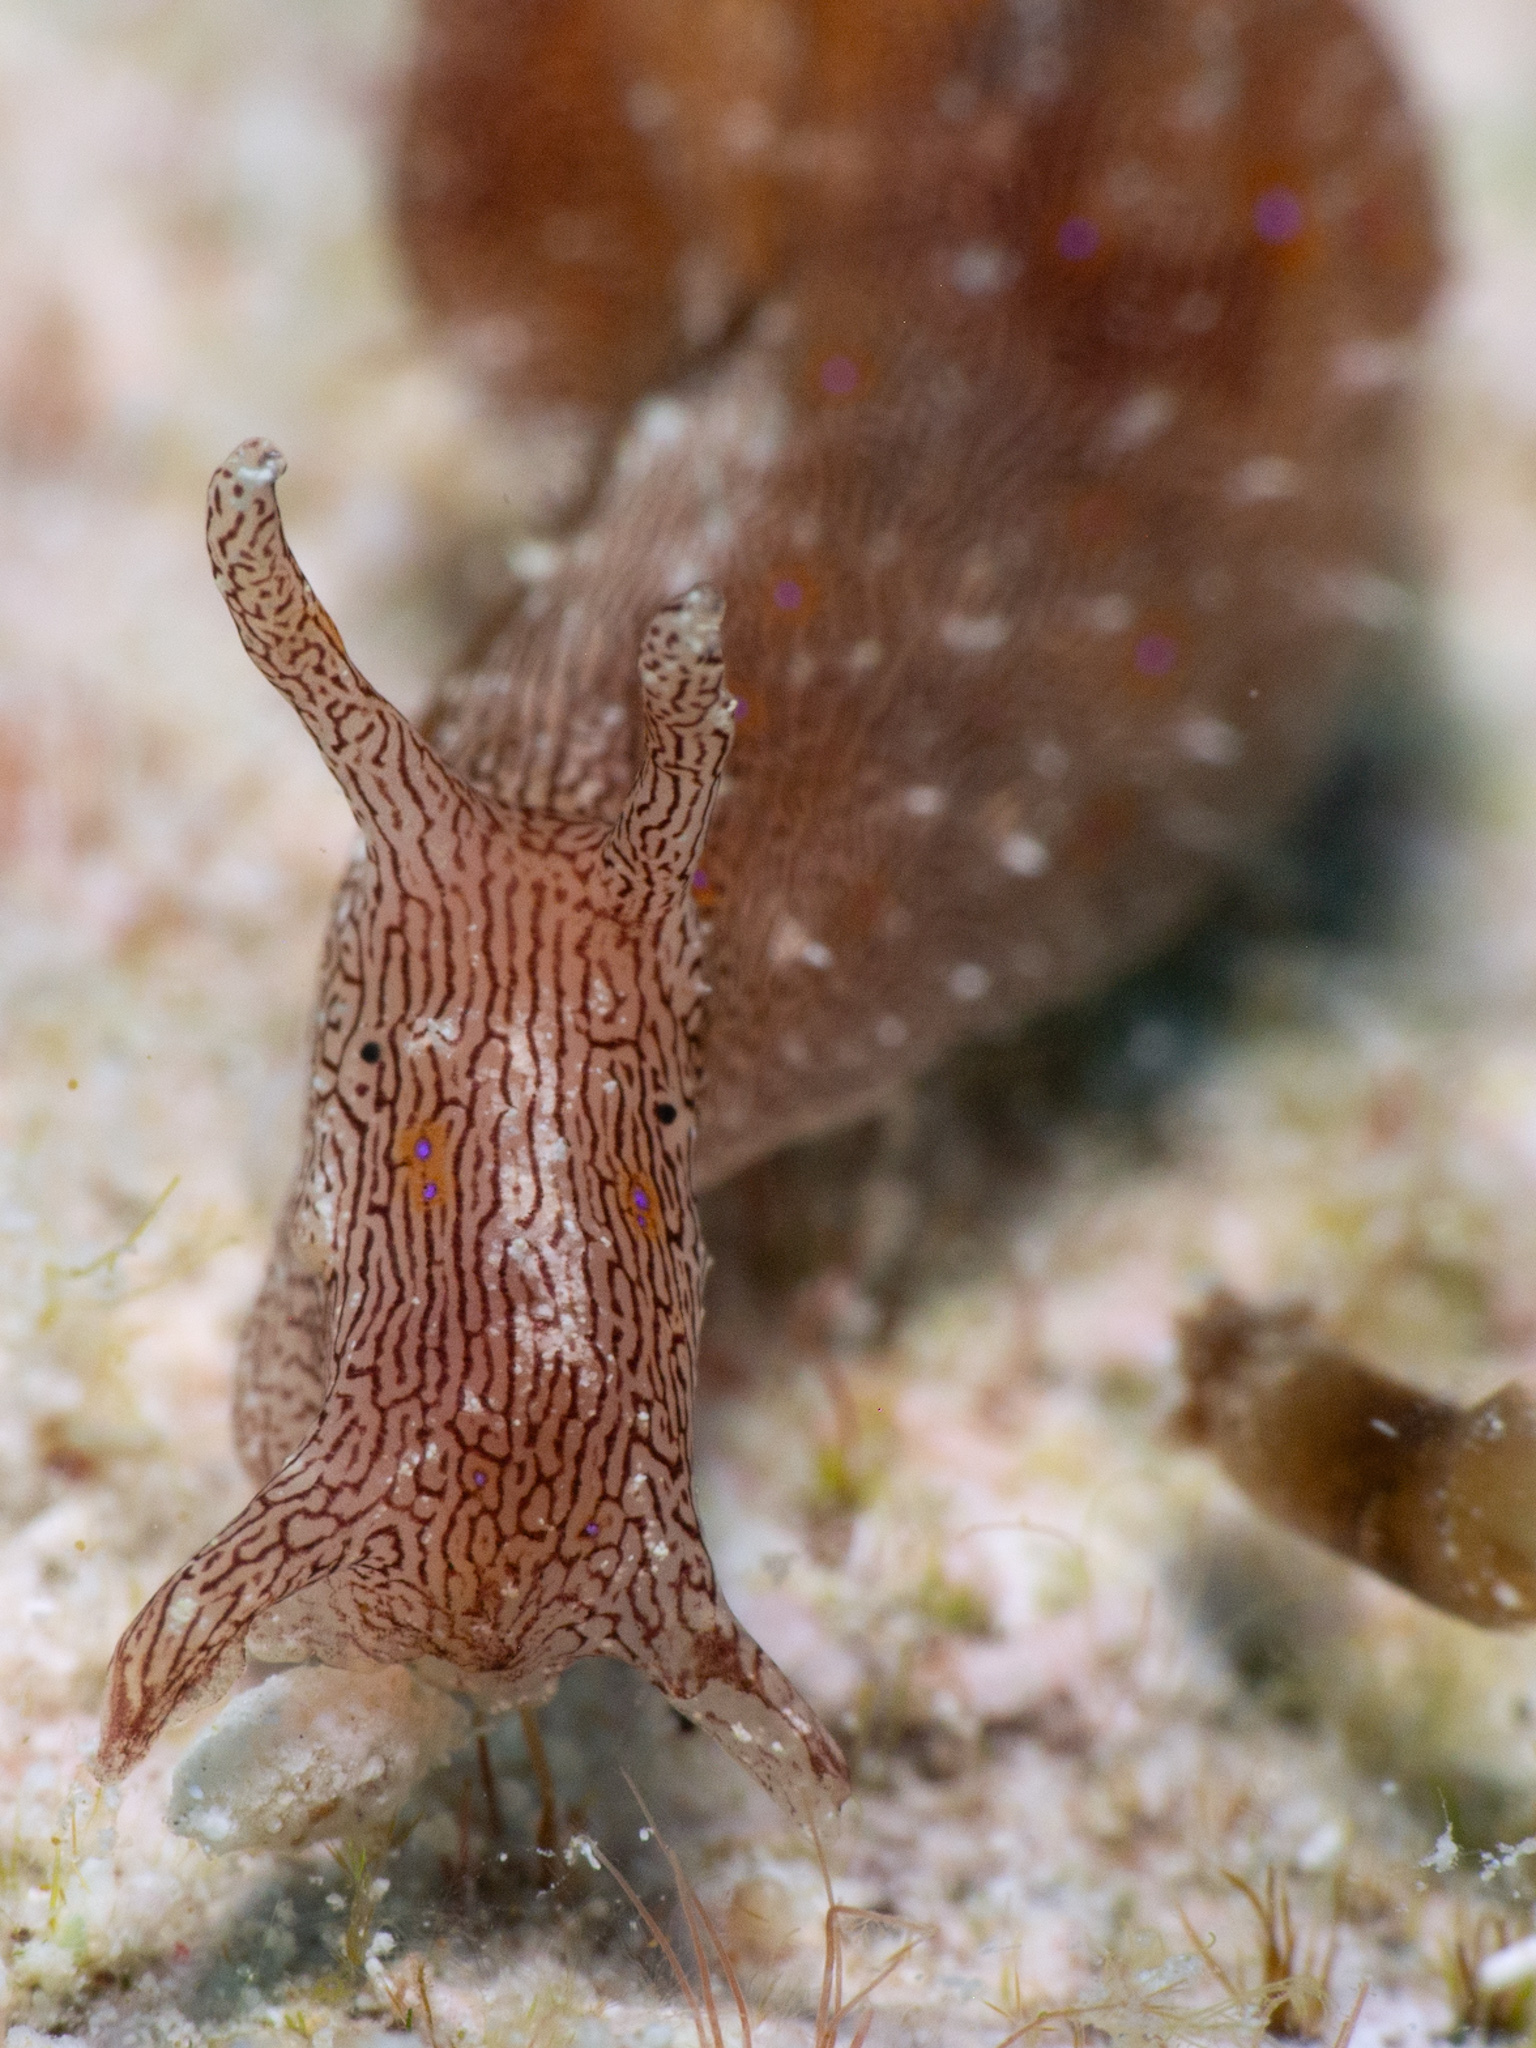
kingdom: Animalia
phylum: Mollusca
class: Gastropoda
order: Aplysiida
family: Aplysiidae
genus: Stylocheilus
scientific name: Stylocheilus polyomma
